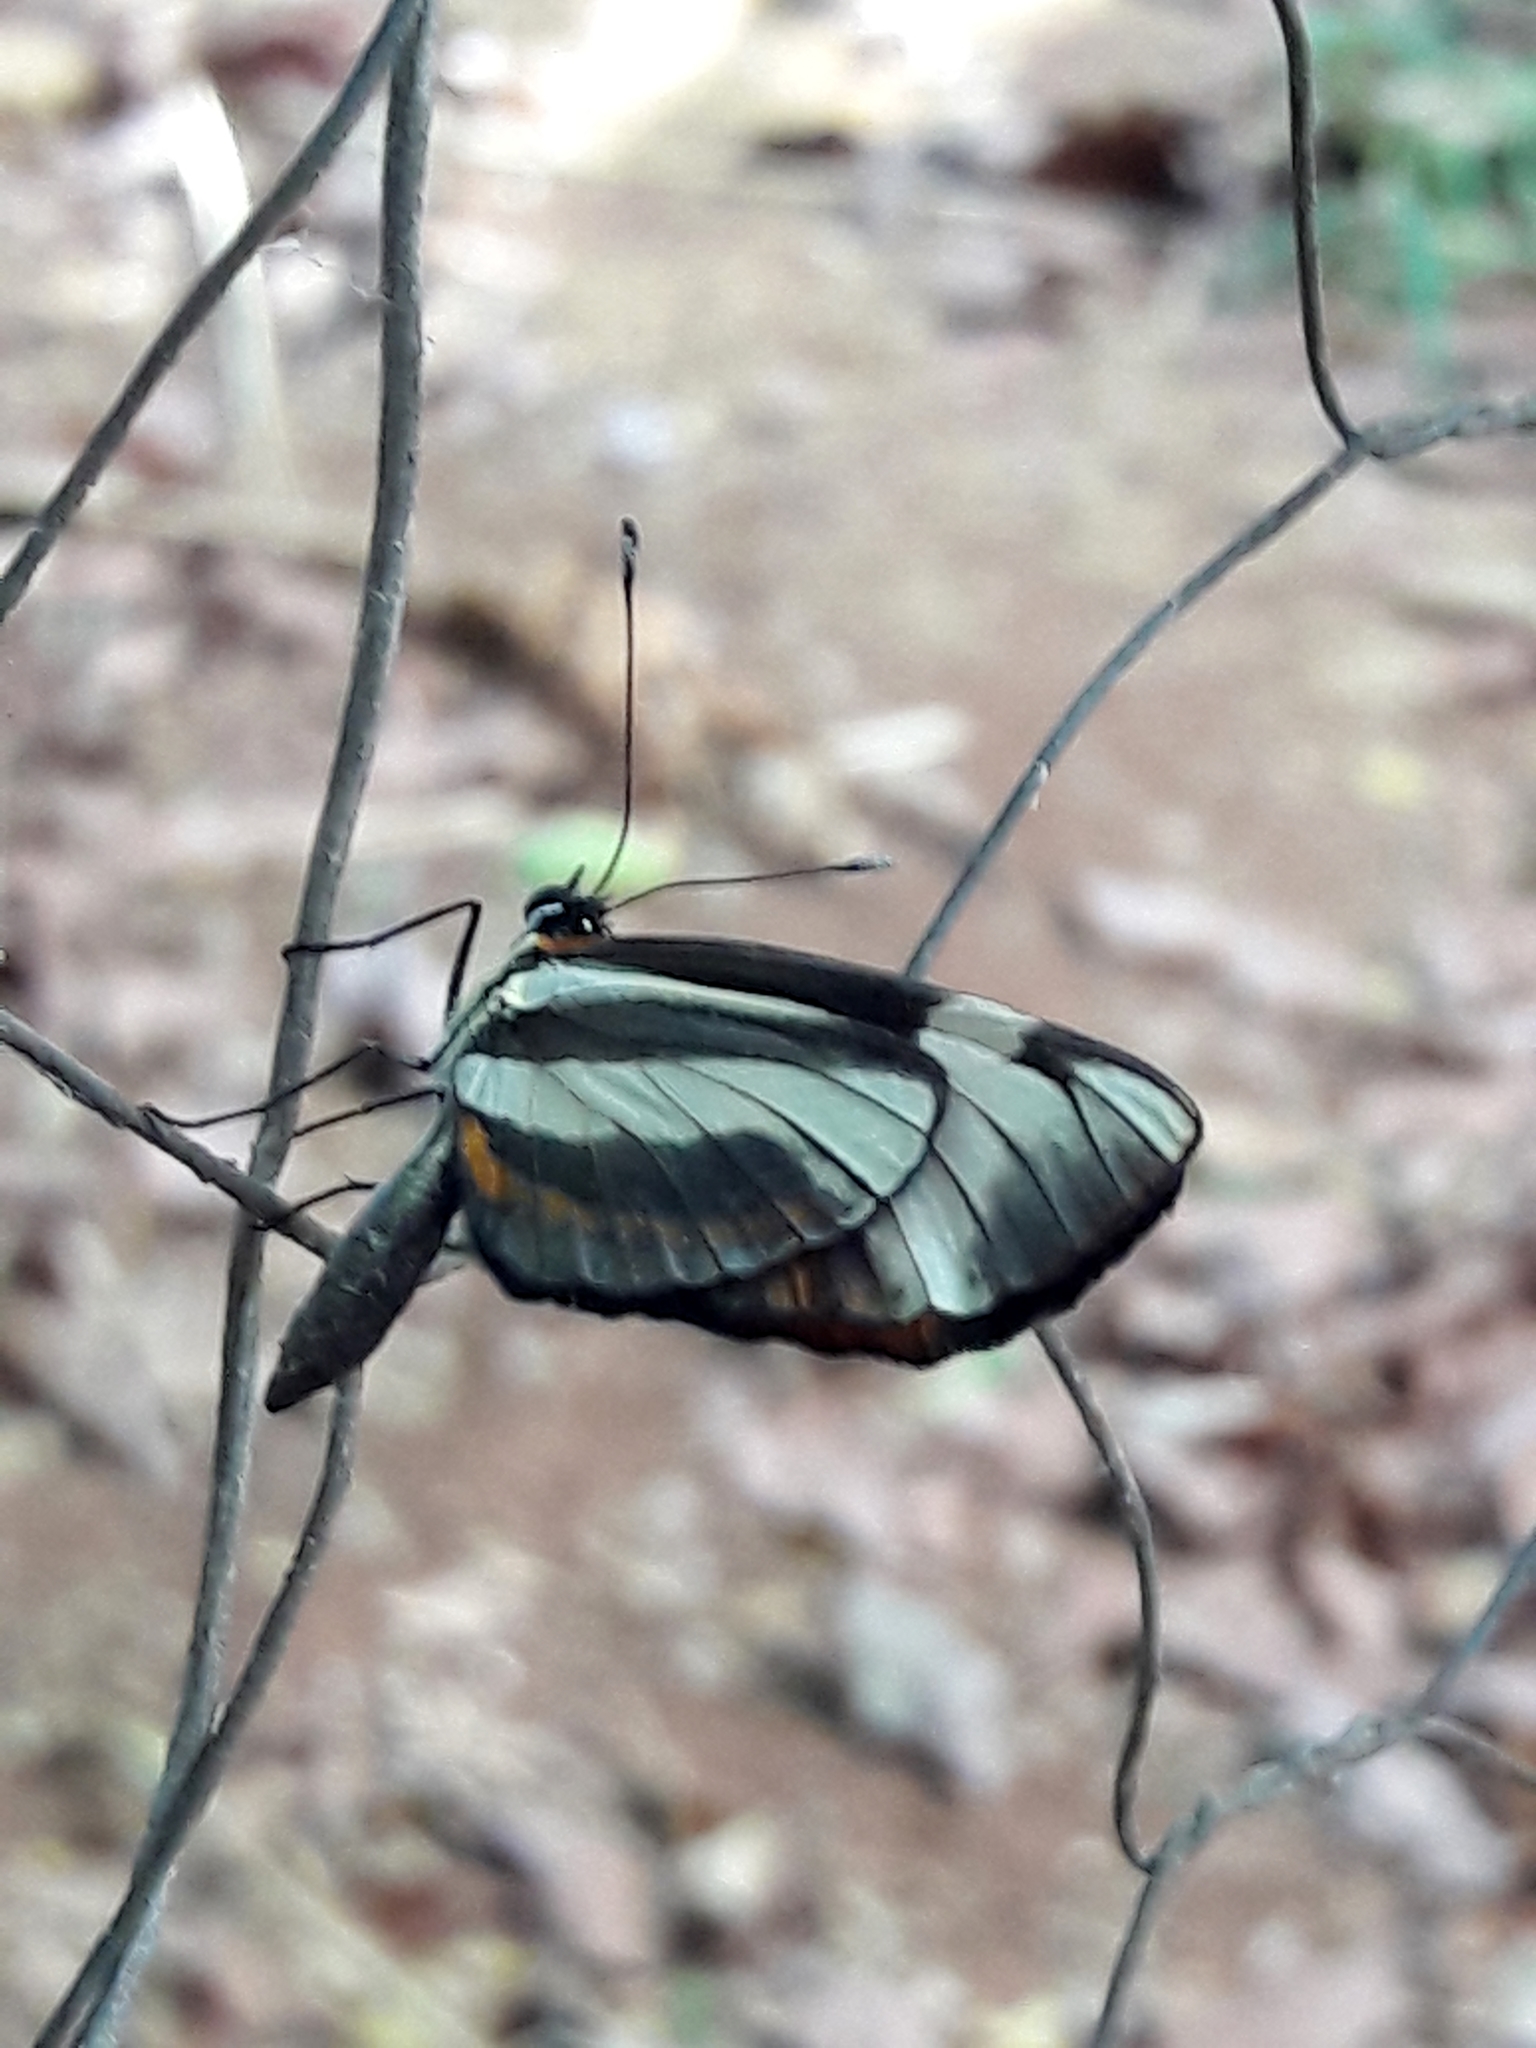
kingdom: Animalia
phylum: Arthropoda
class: Insecta
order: Lepidoptera
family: Nymphalidae
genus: Eresia
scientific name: Eresia lansdorfi
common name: Lansdorf's crescent
